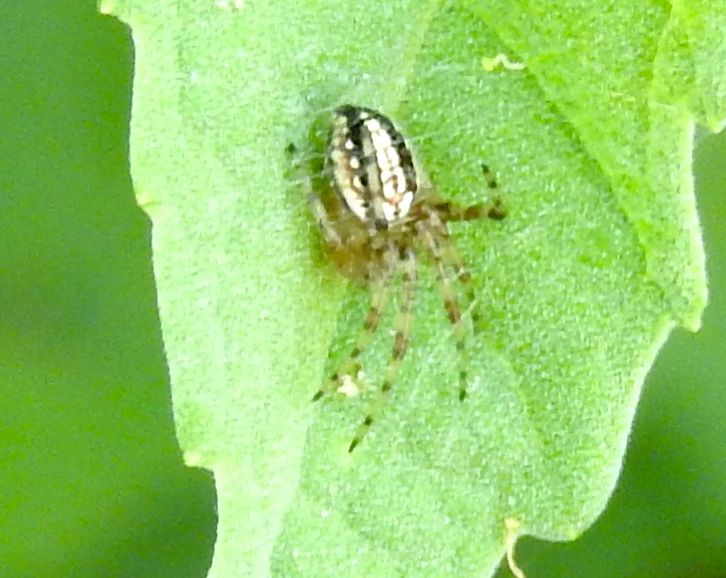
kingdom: Animalia
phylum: Arthropoda
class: Arachnida
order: Araneae
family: Araneidae
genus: Neoscona
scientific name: Neoscona oaxacensis
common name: Orb weavers
